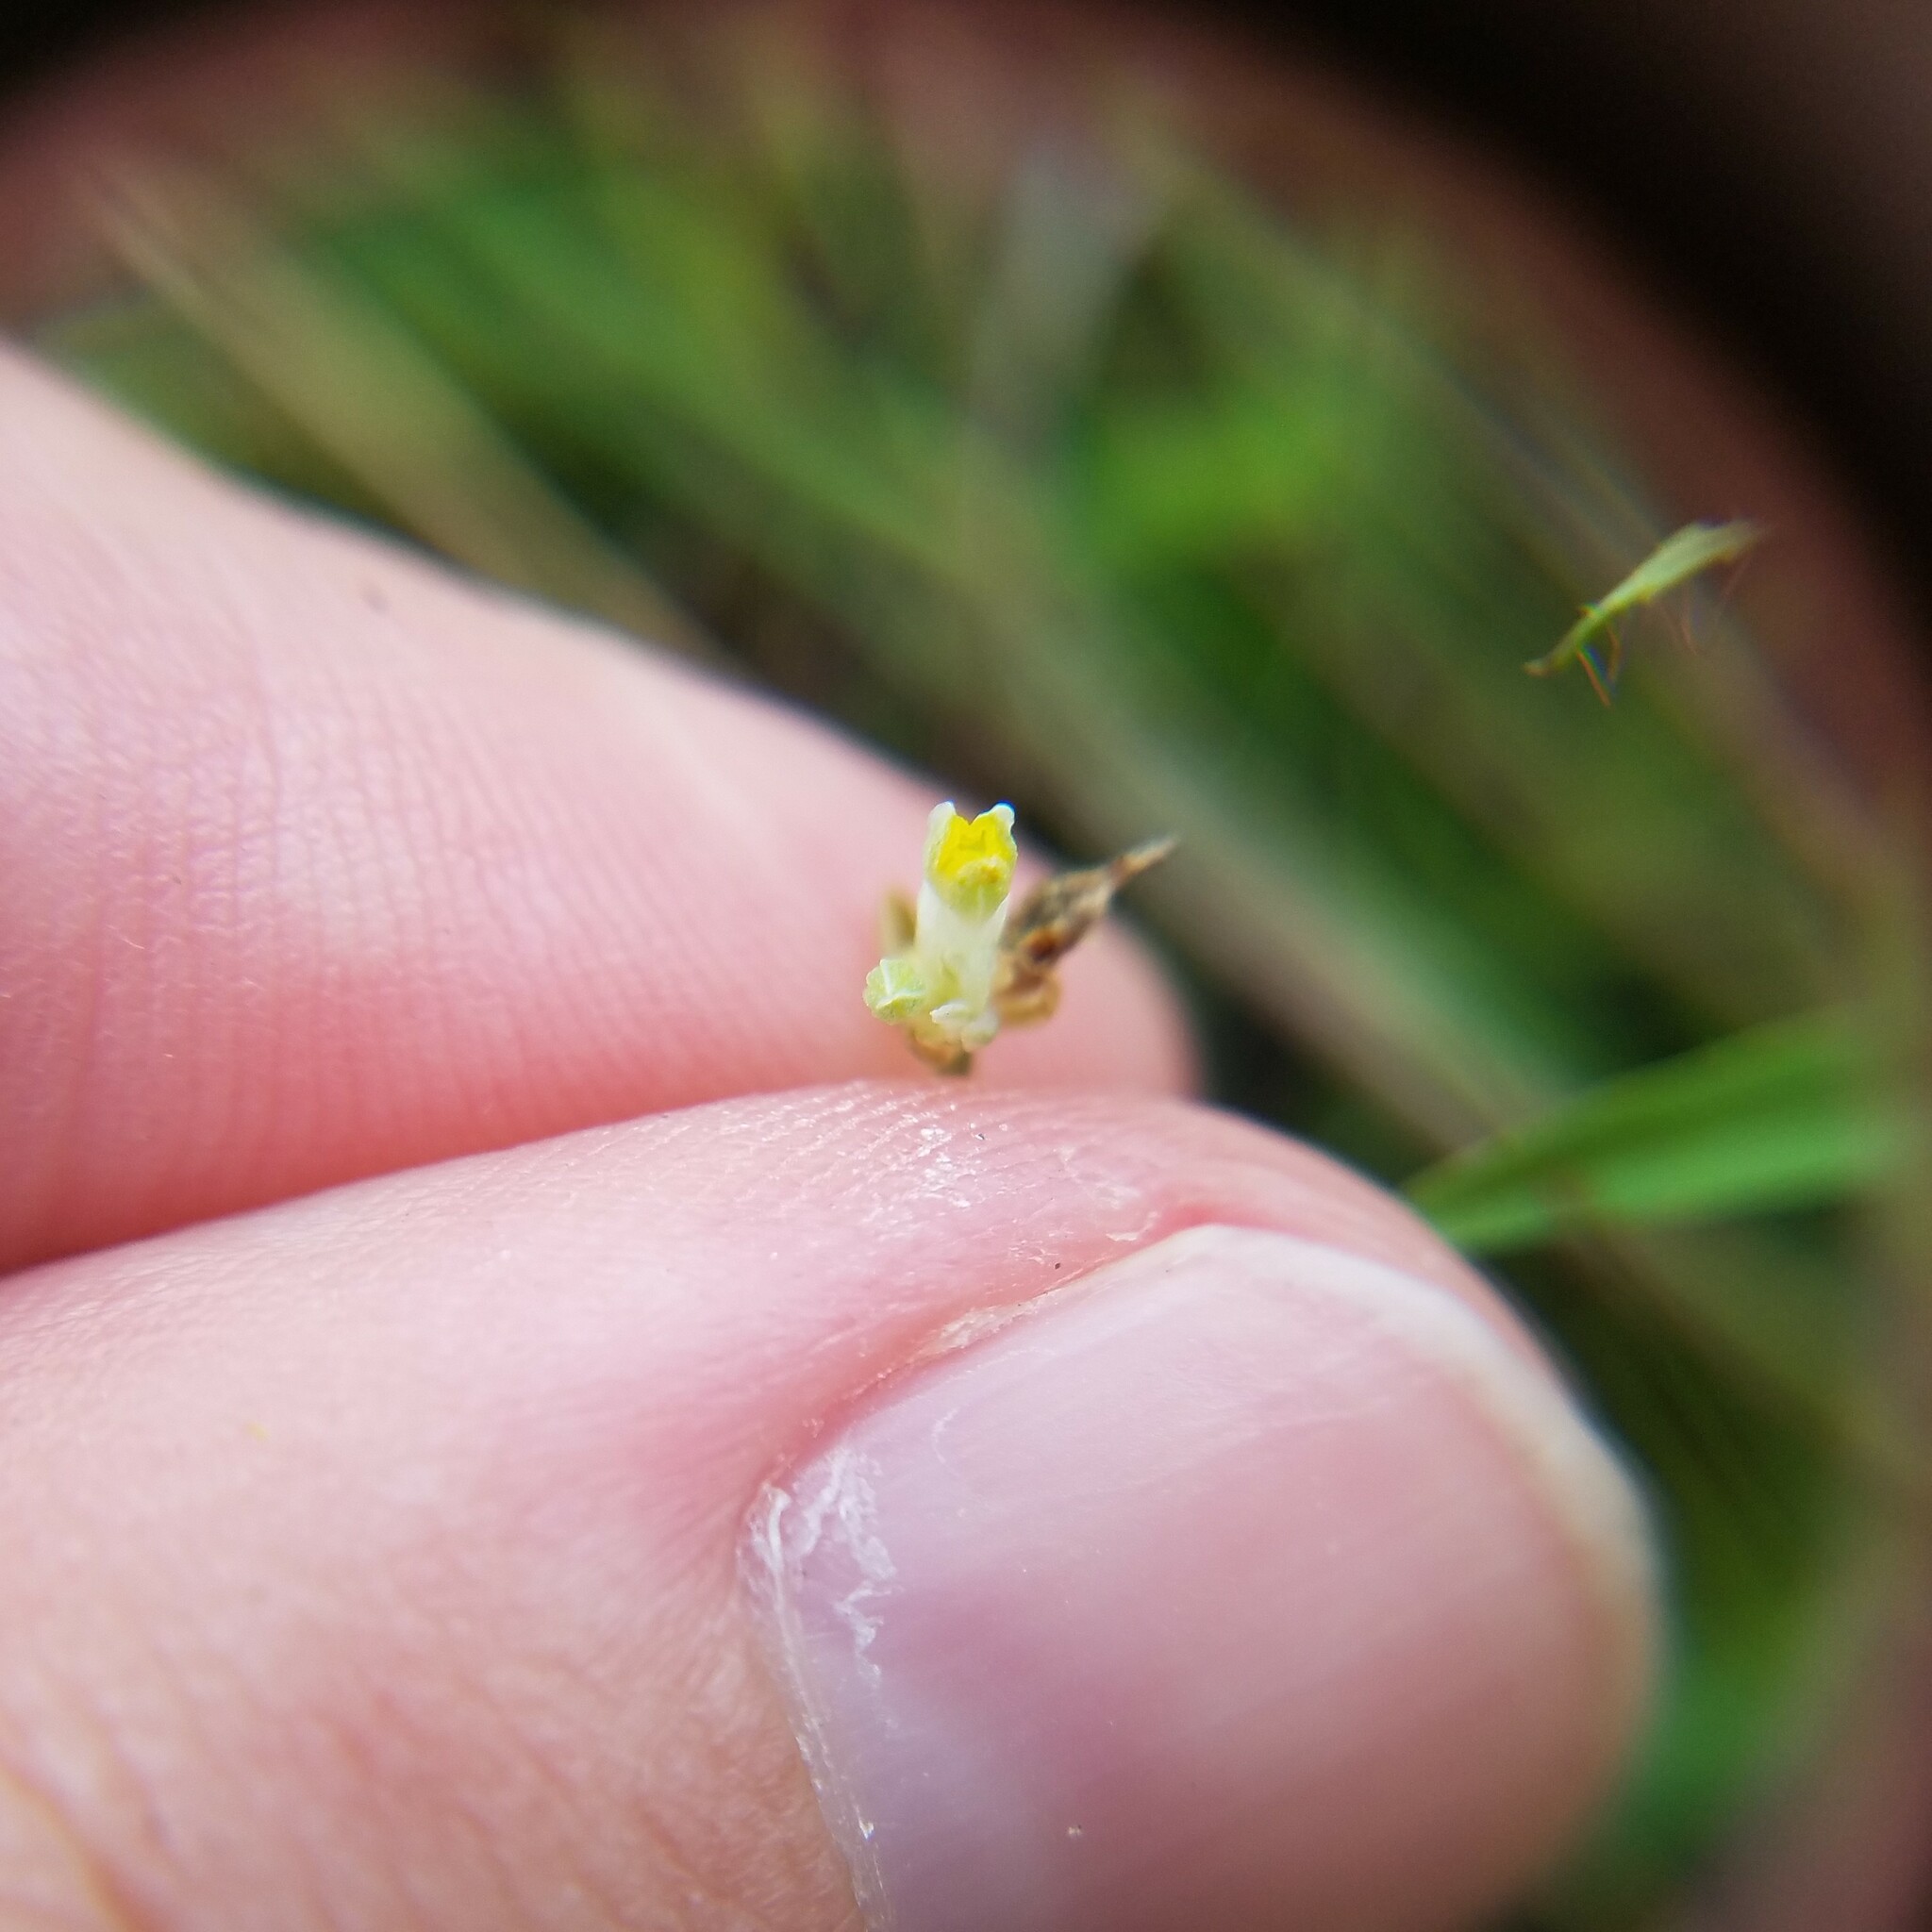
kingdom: Plantae
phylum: Tracheophyta
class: Liliopsida
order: Dioscoreales
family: Burmanniaceae
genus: Burmannia
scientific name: Burmannia capitata
